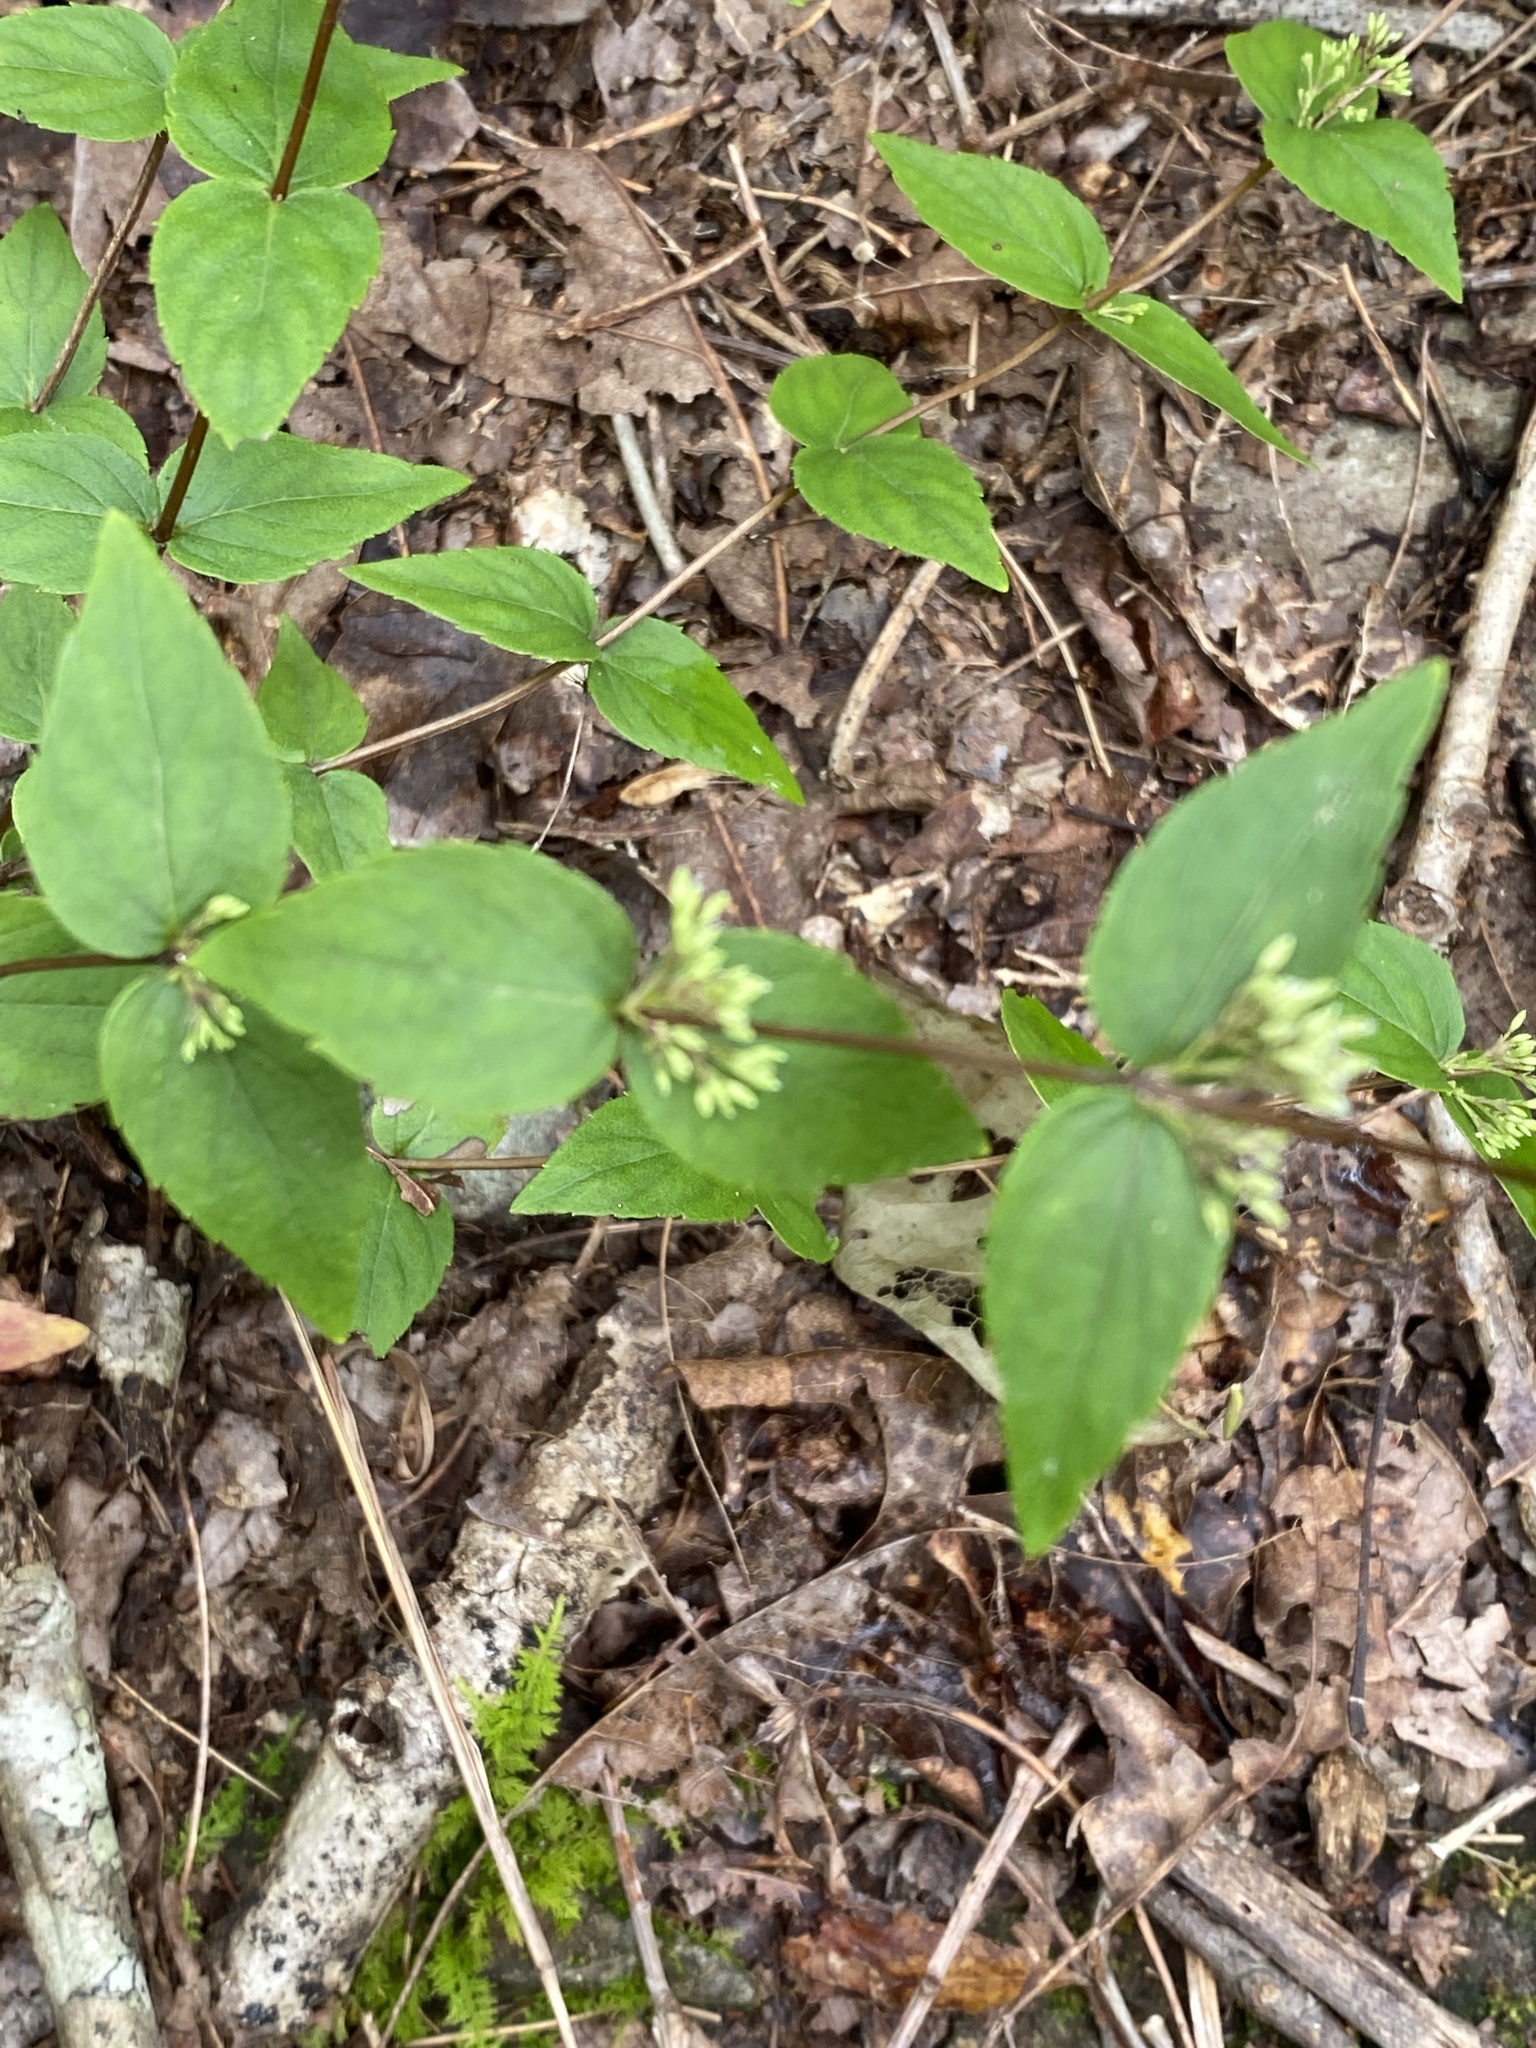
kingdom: Plantae
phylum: Tracheophyta
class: Magnoliopsida
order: Lamiales
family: Lamiaceae
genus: Cunila
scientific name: Cunila origanoides
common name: American dittany
